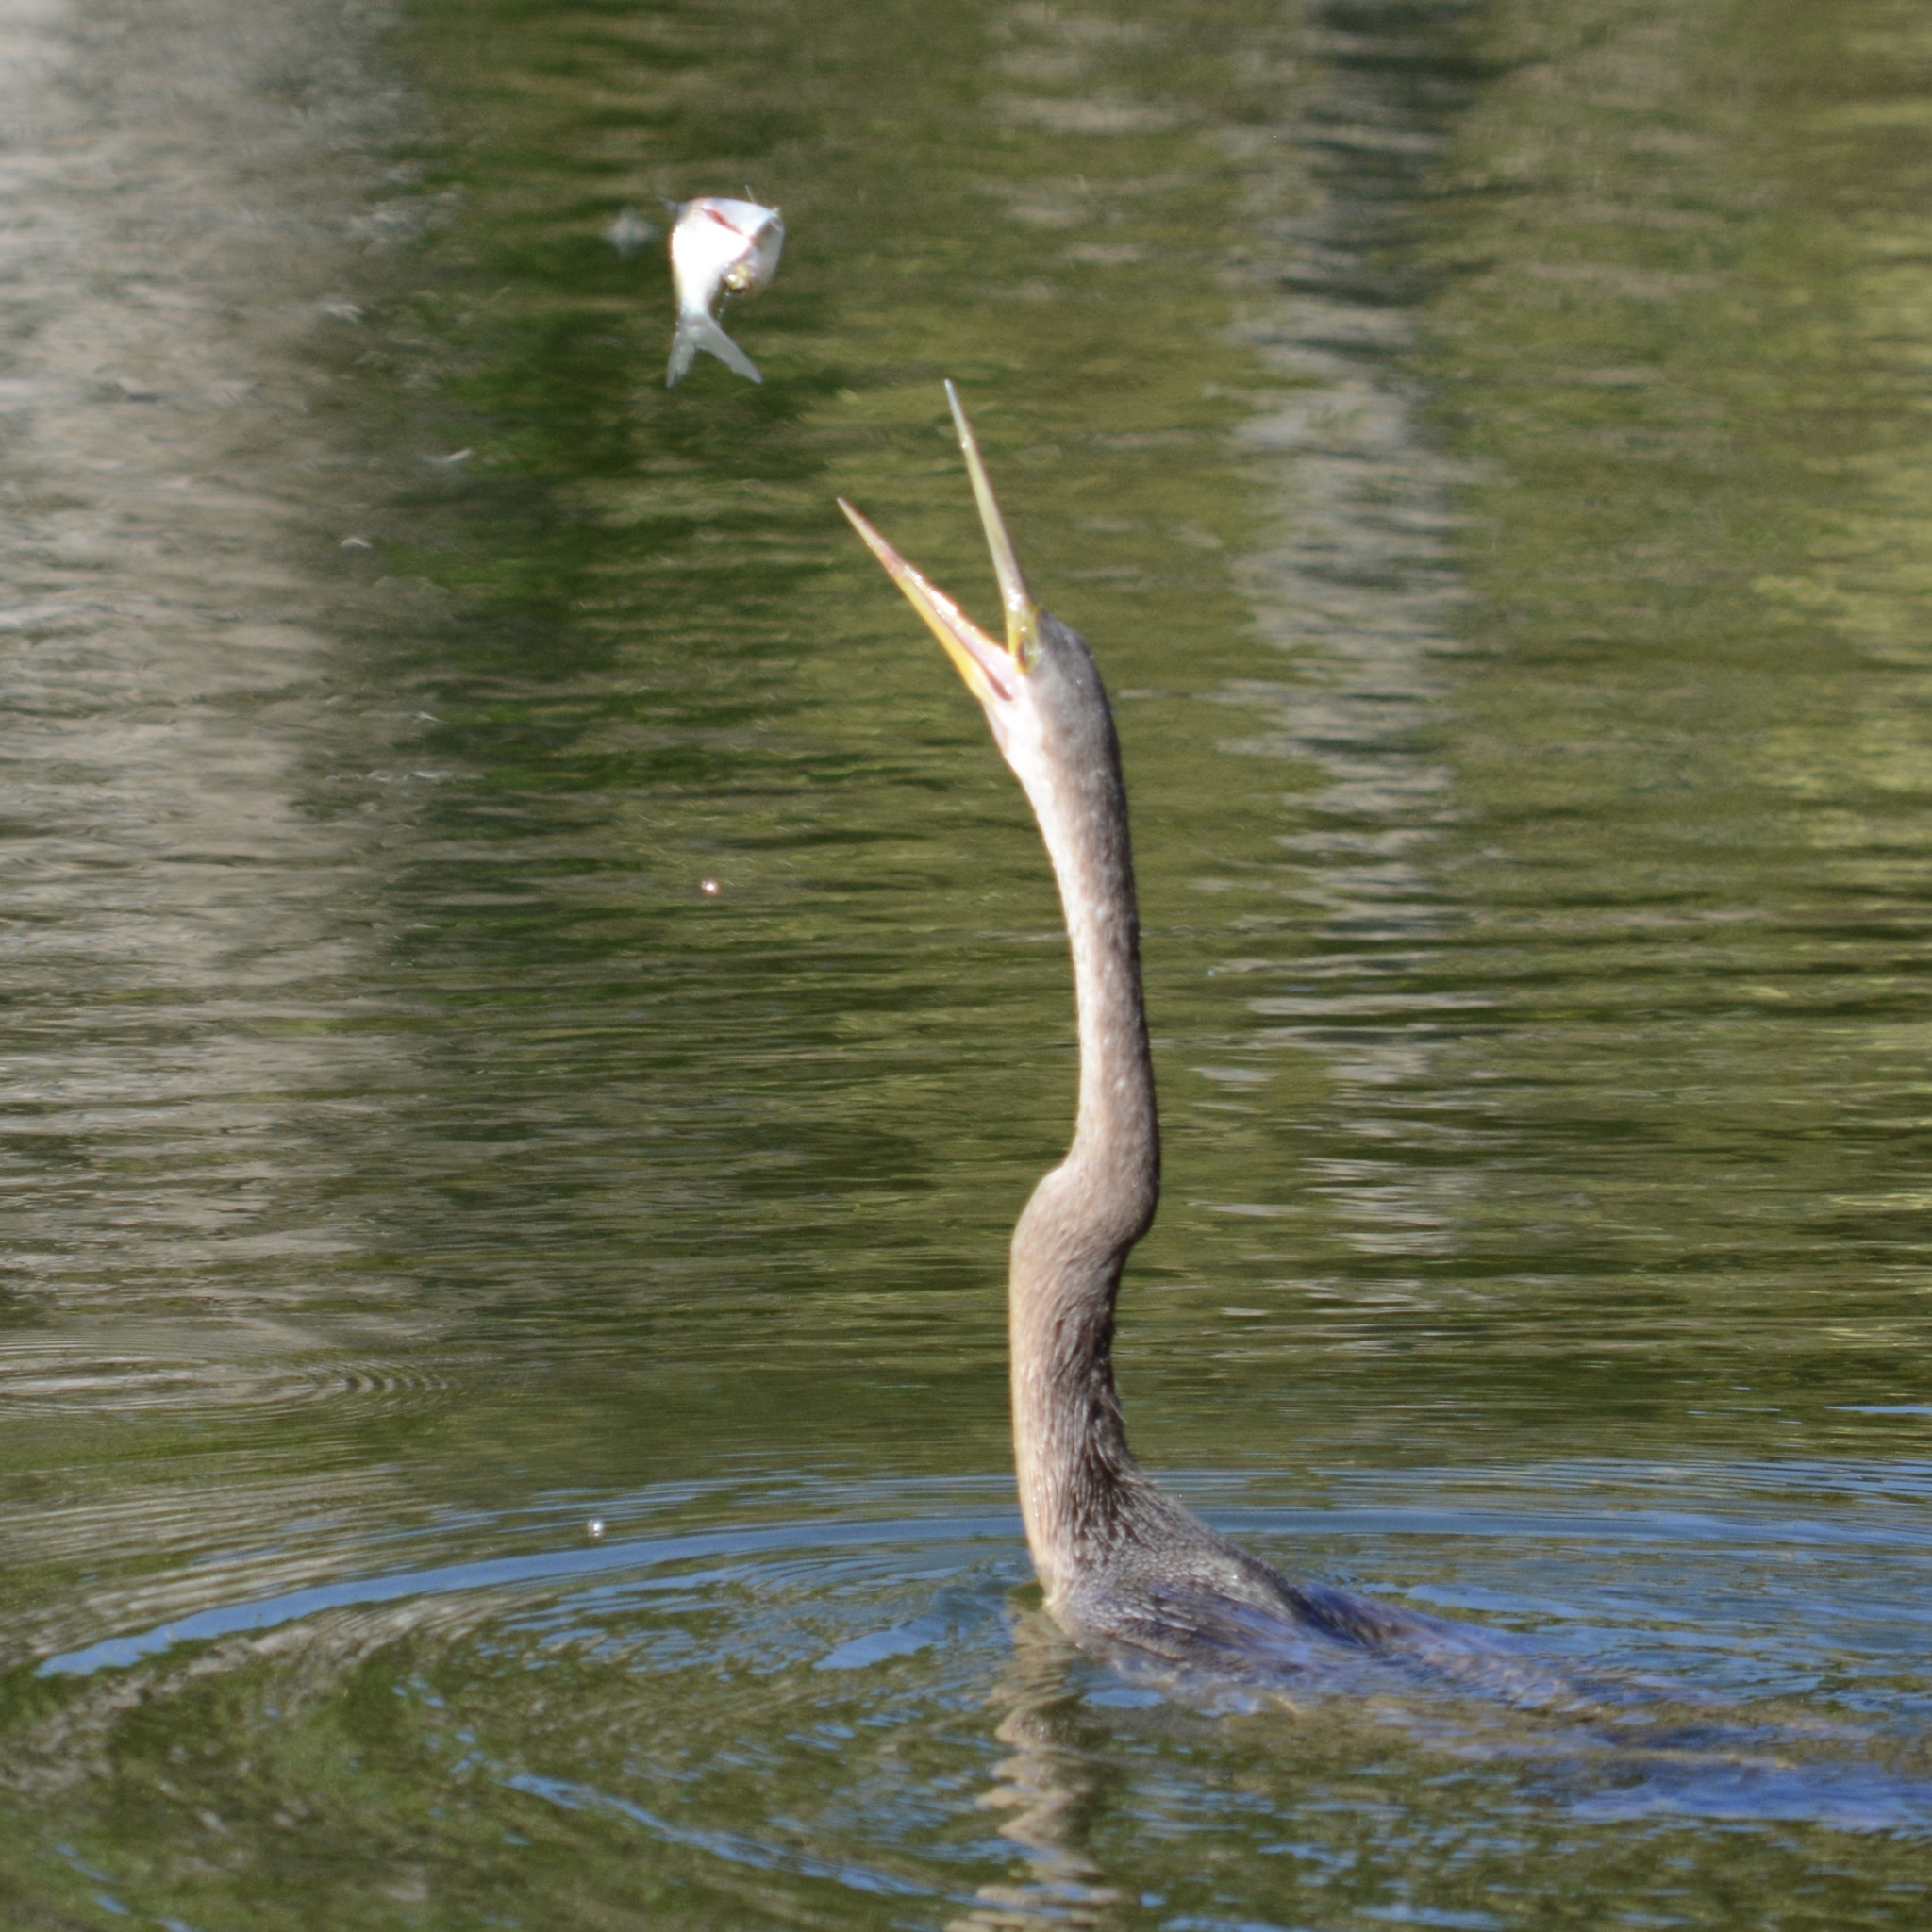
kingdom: Animalia
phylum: Chordata
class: Aves
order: Suliformes
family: Anhingidae
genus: Anhinga
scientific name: Anhinga anhinga
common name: Anhinga
